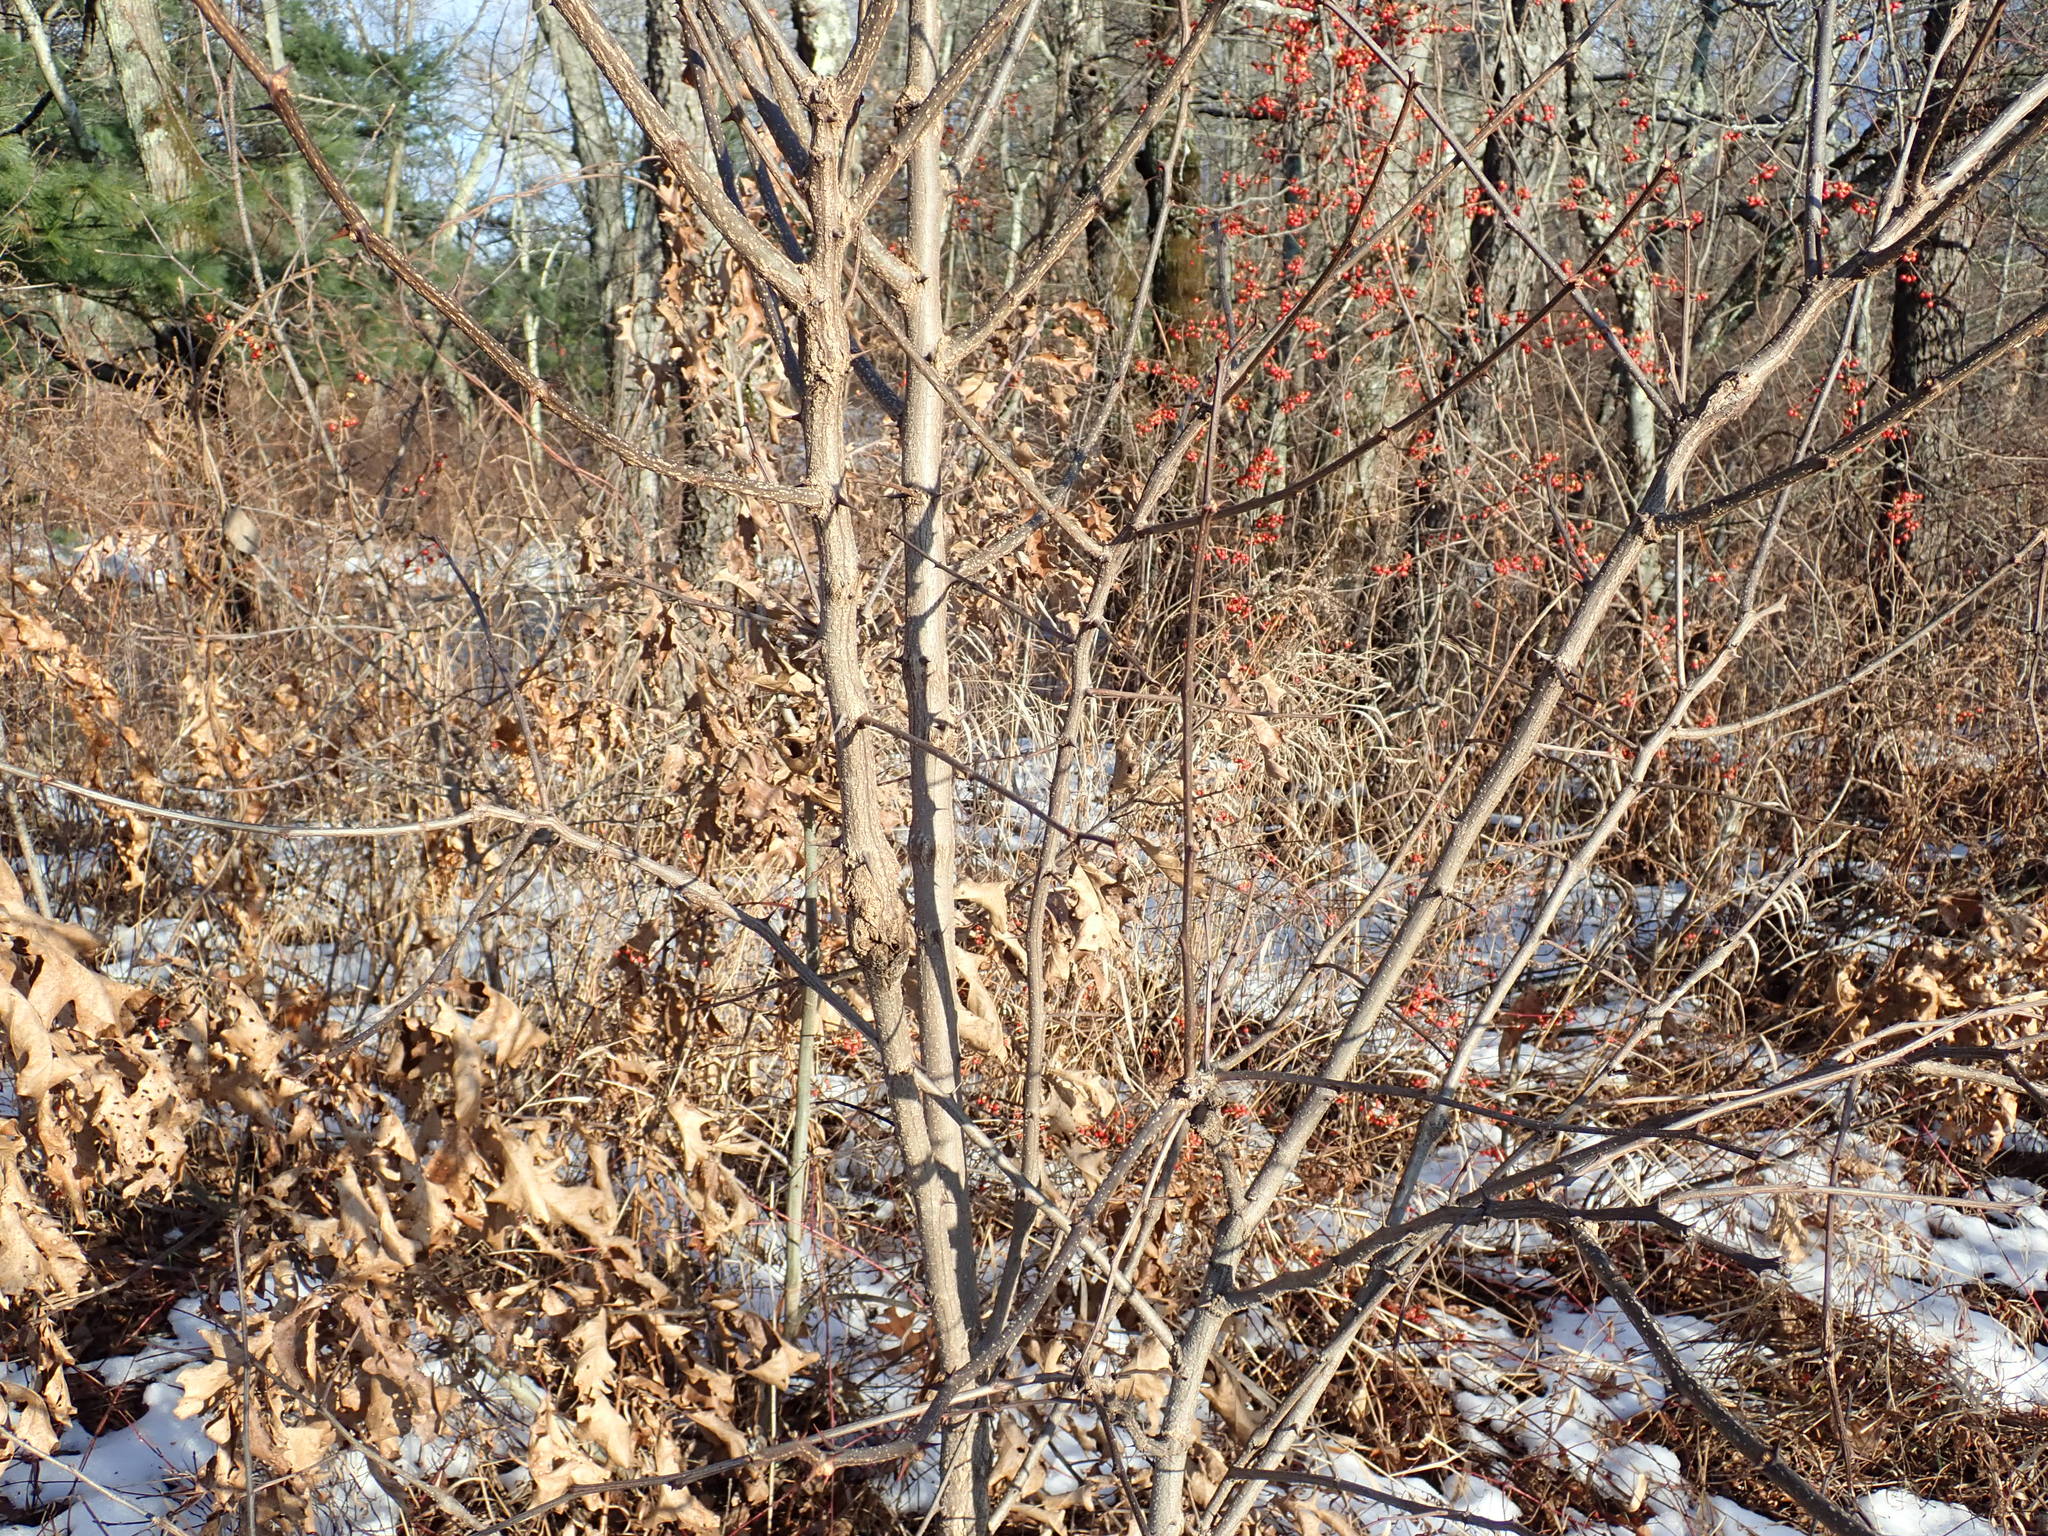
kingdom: Plantae
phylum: Tracheophyta
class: Magnoliopsida
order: Fabales
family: Fabaceae
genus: Robinia
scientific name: Robinia pseudoacacia
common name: Black locust
